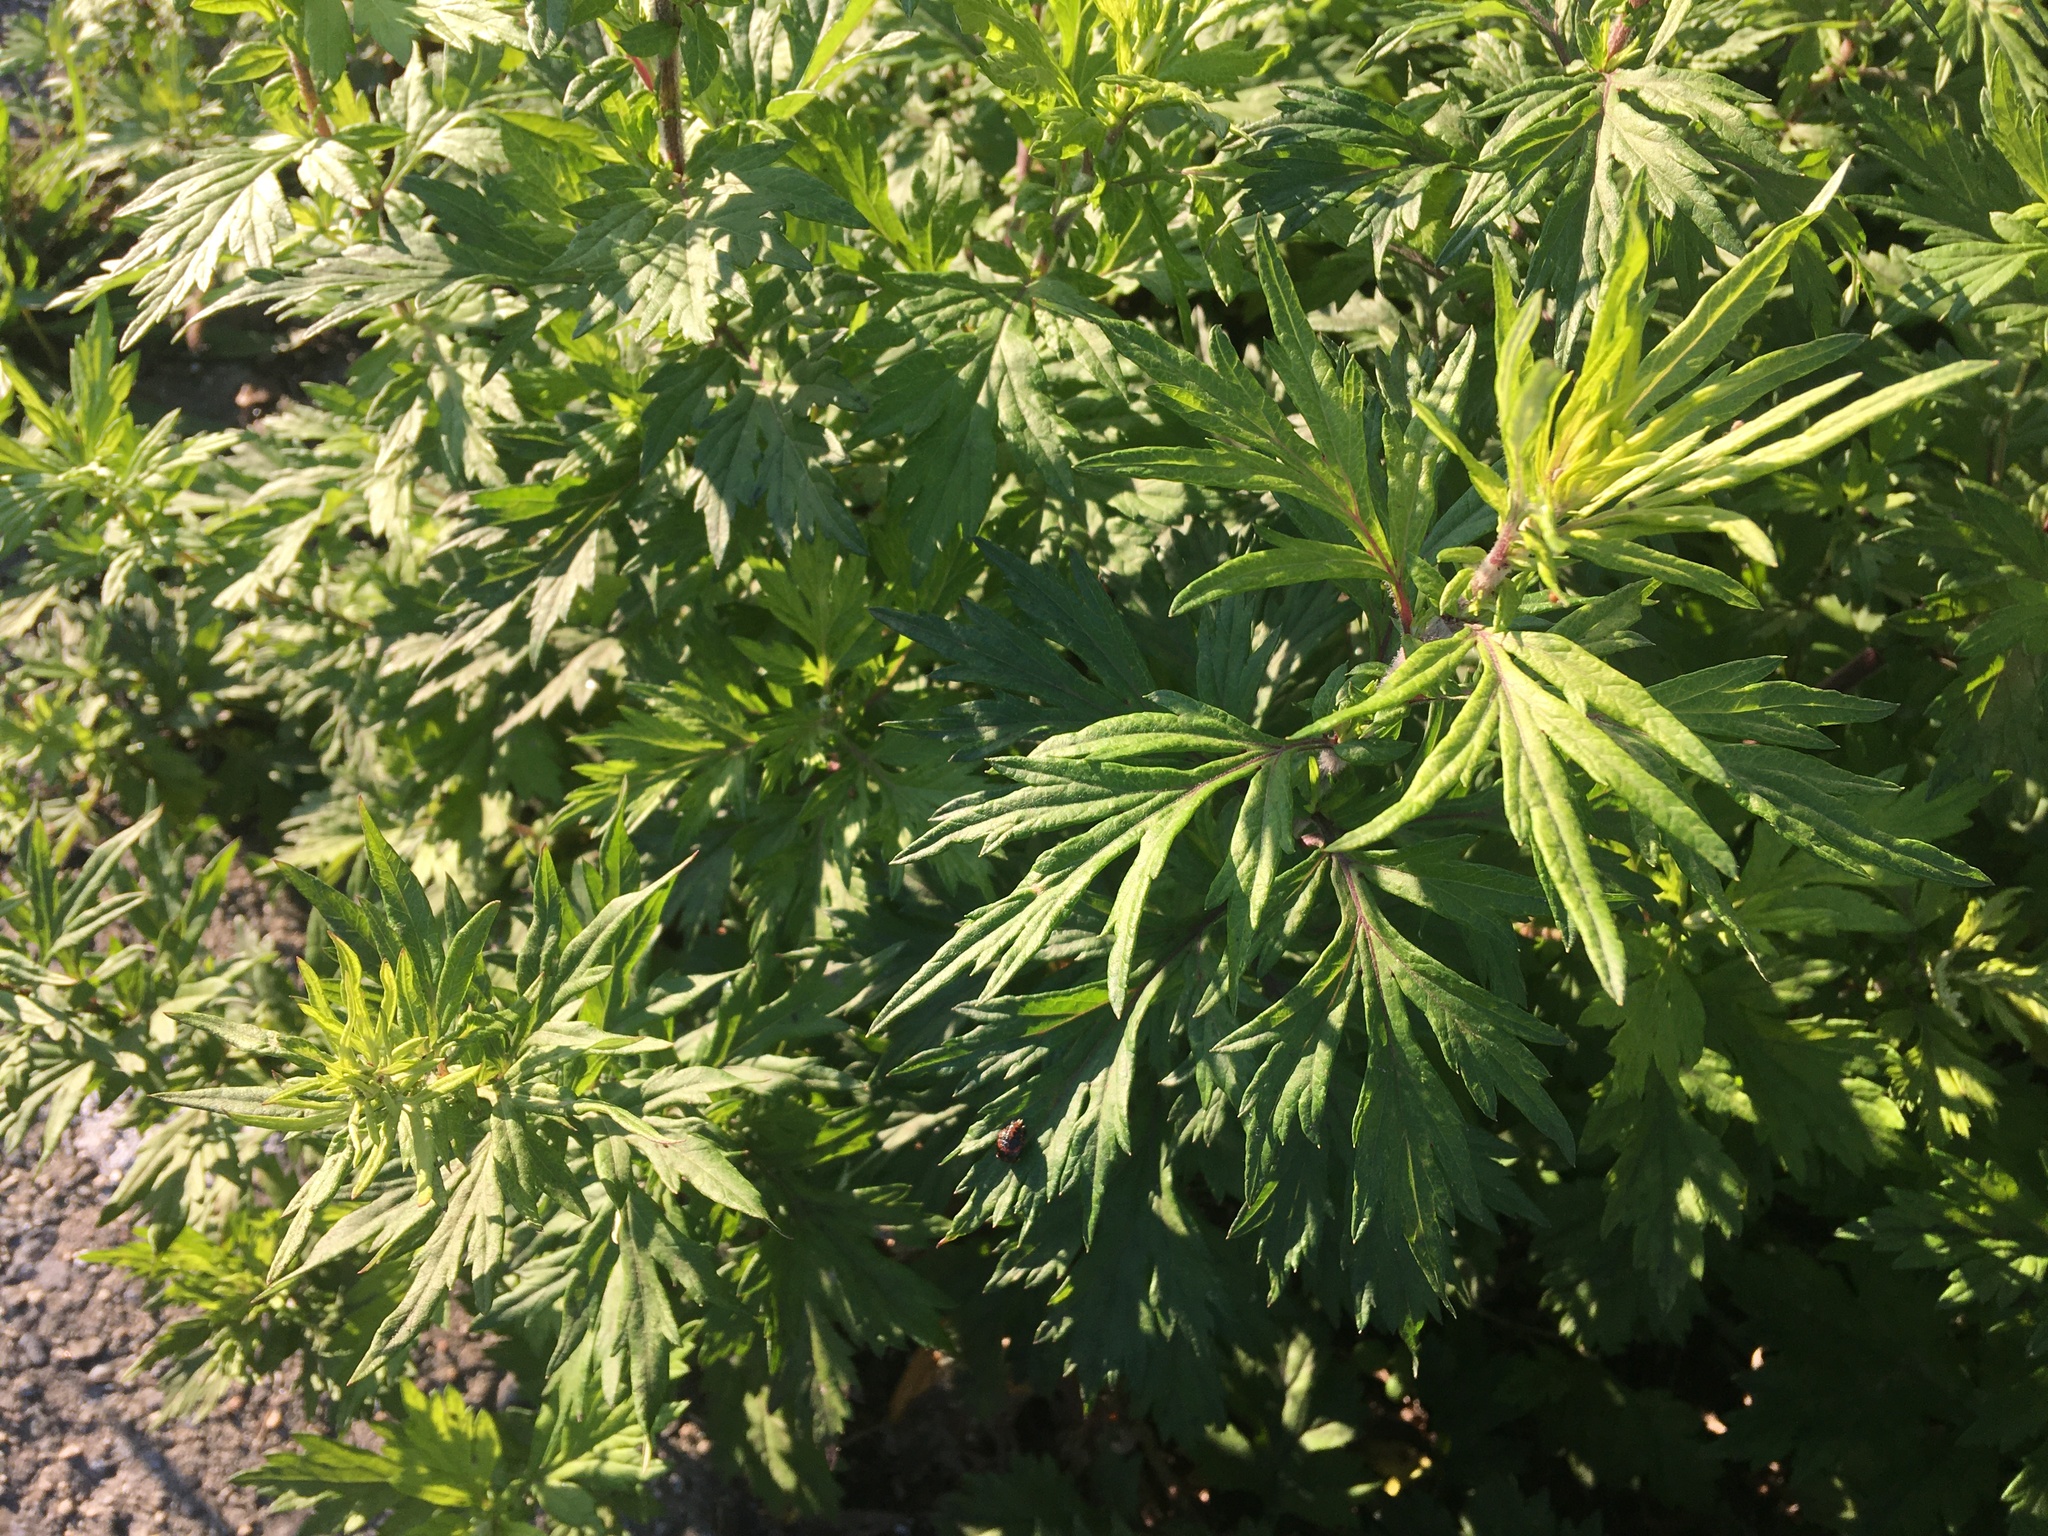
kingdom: Plantae
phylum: Tracheophyta
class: Magnoliopsida
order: Asterales
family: Asteraceae
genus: Artemisia
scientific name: Artemisia vulgaris
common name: Mugwort
